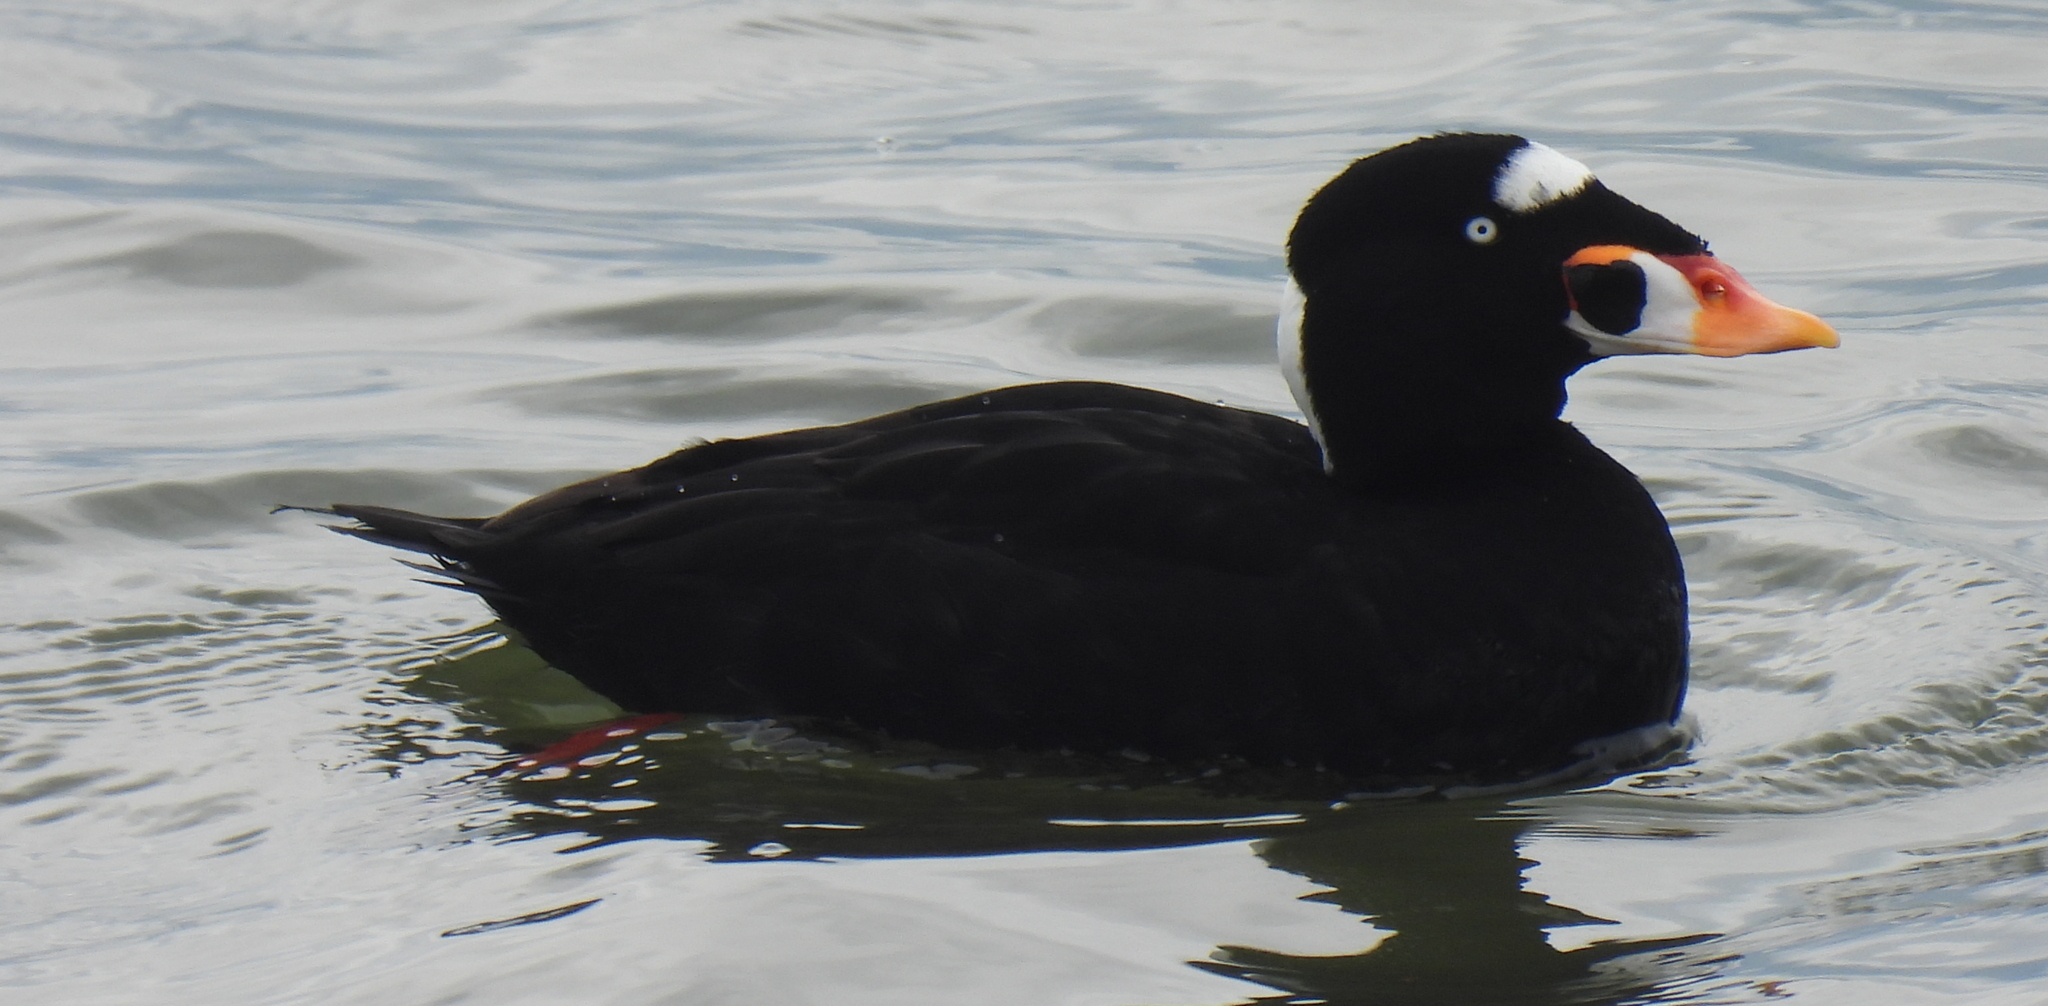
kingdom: Animalia
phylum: Chordata
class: Aves
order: Anseriformes
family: Anatidae
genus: Melanitta
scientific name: Melanitta perspicillata
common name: Surf scoter
